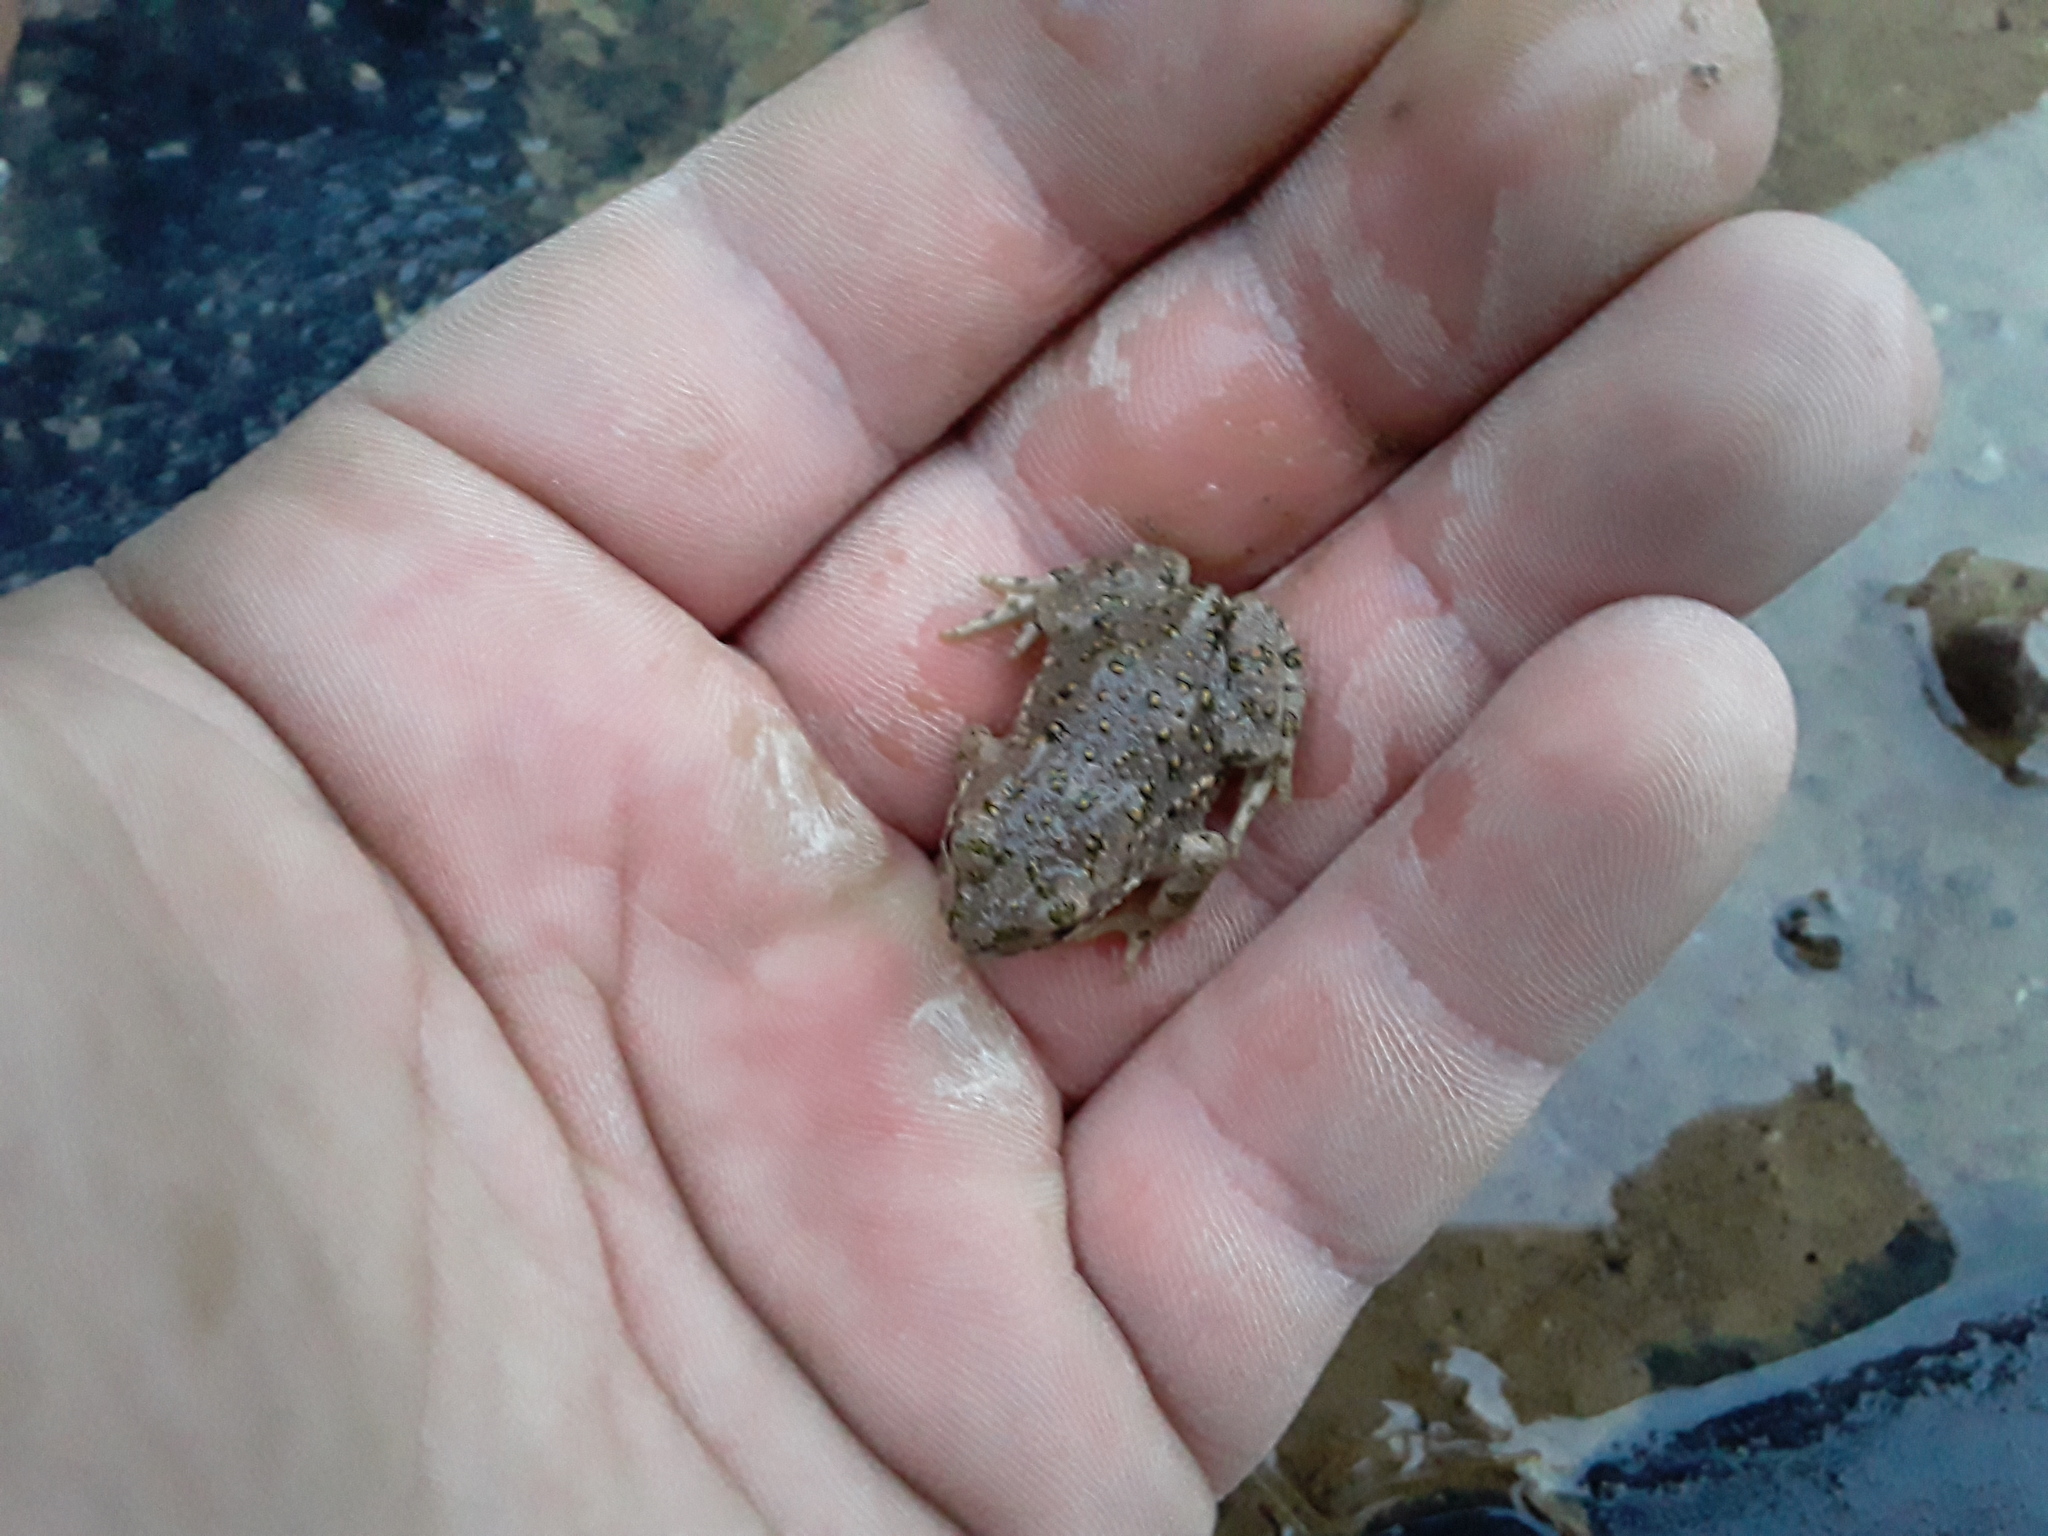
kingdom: Animalia
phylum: Chordata
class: Amphibia
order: Anura
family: Bufonidae
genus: Bufotes
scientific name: Bufotes viridis
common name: European green toad
